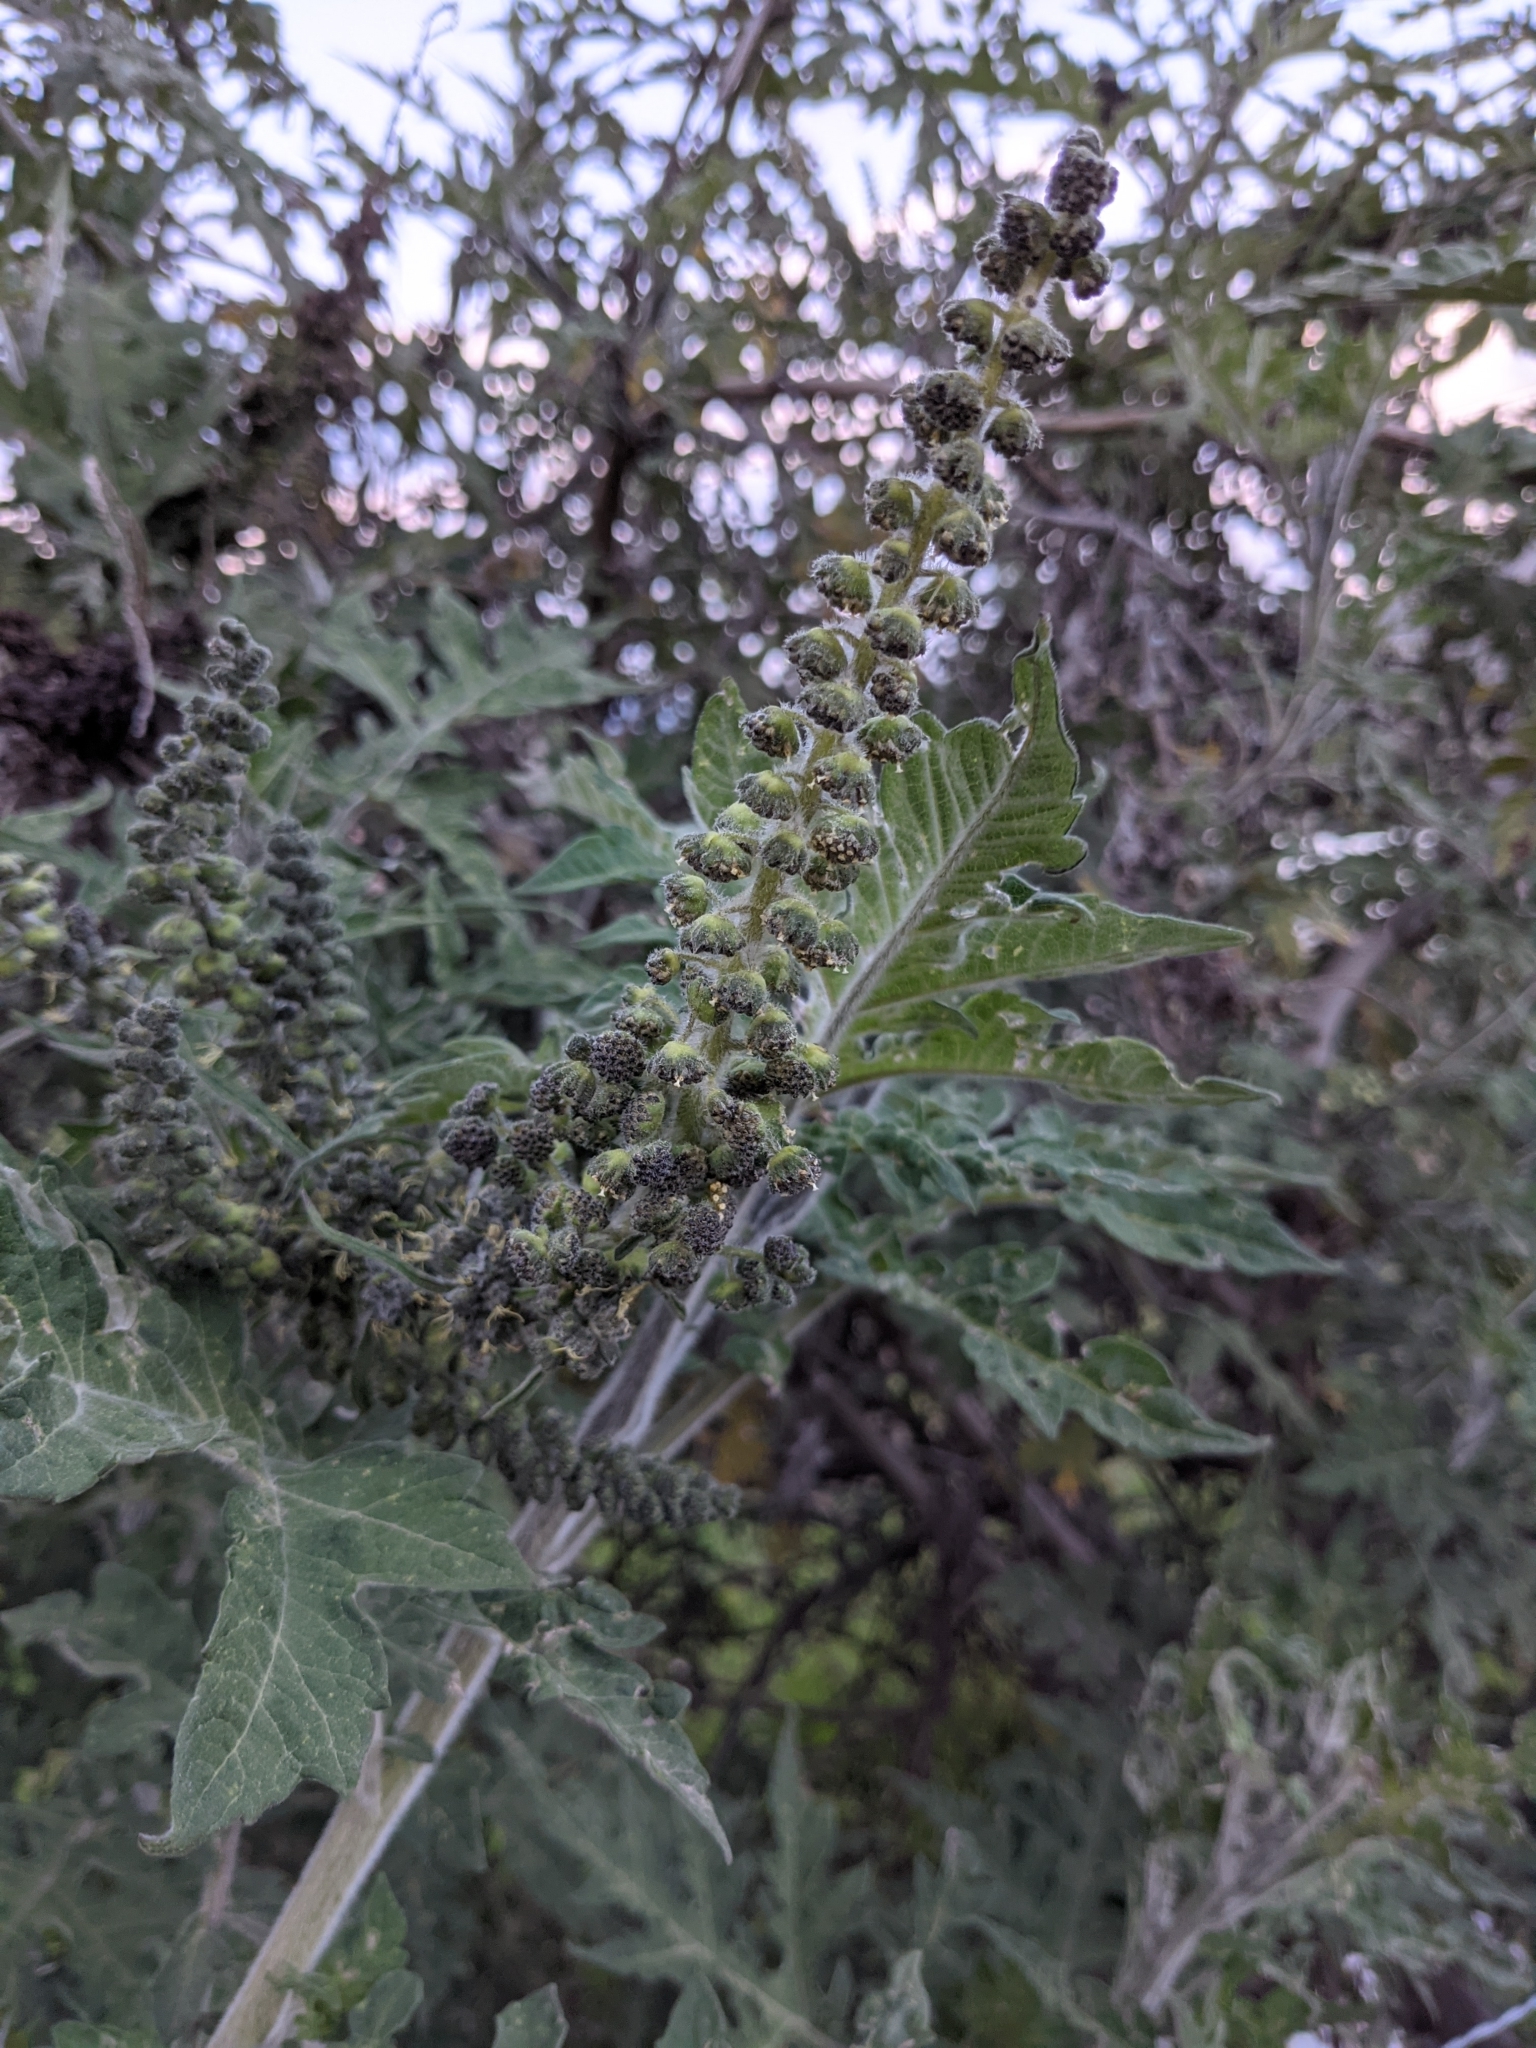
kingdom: Plantae
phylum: Tracheophyta
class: Magnoliopsida
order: Asterales
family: Asteraceae
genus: Ambrosia
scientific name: Ambrosia arborescens
